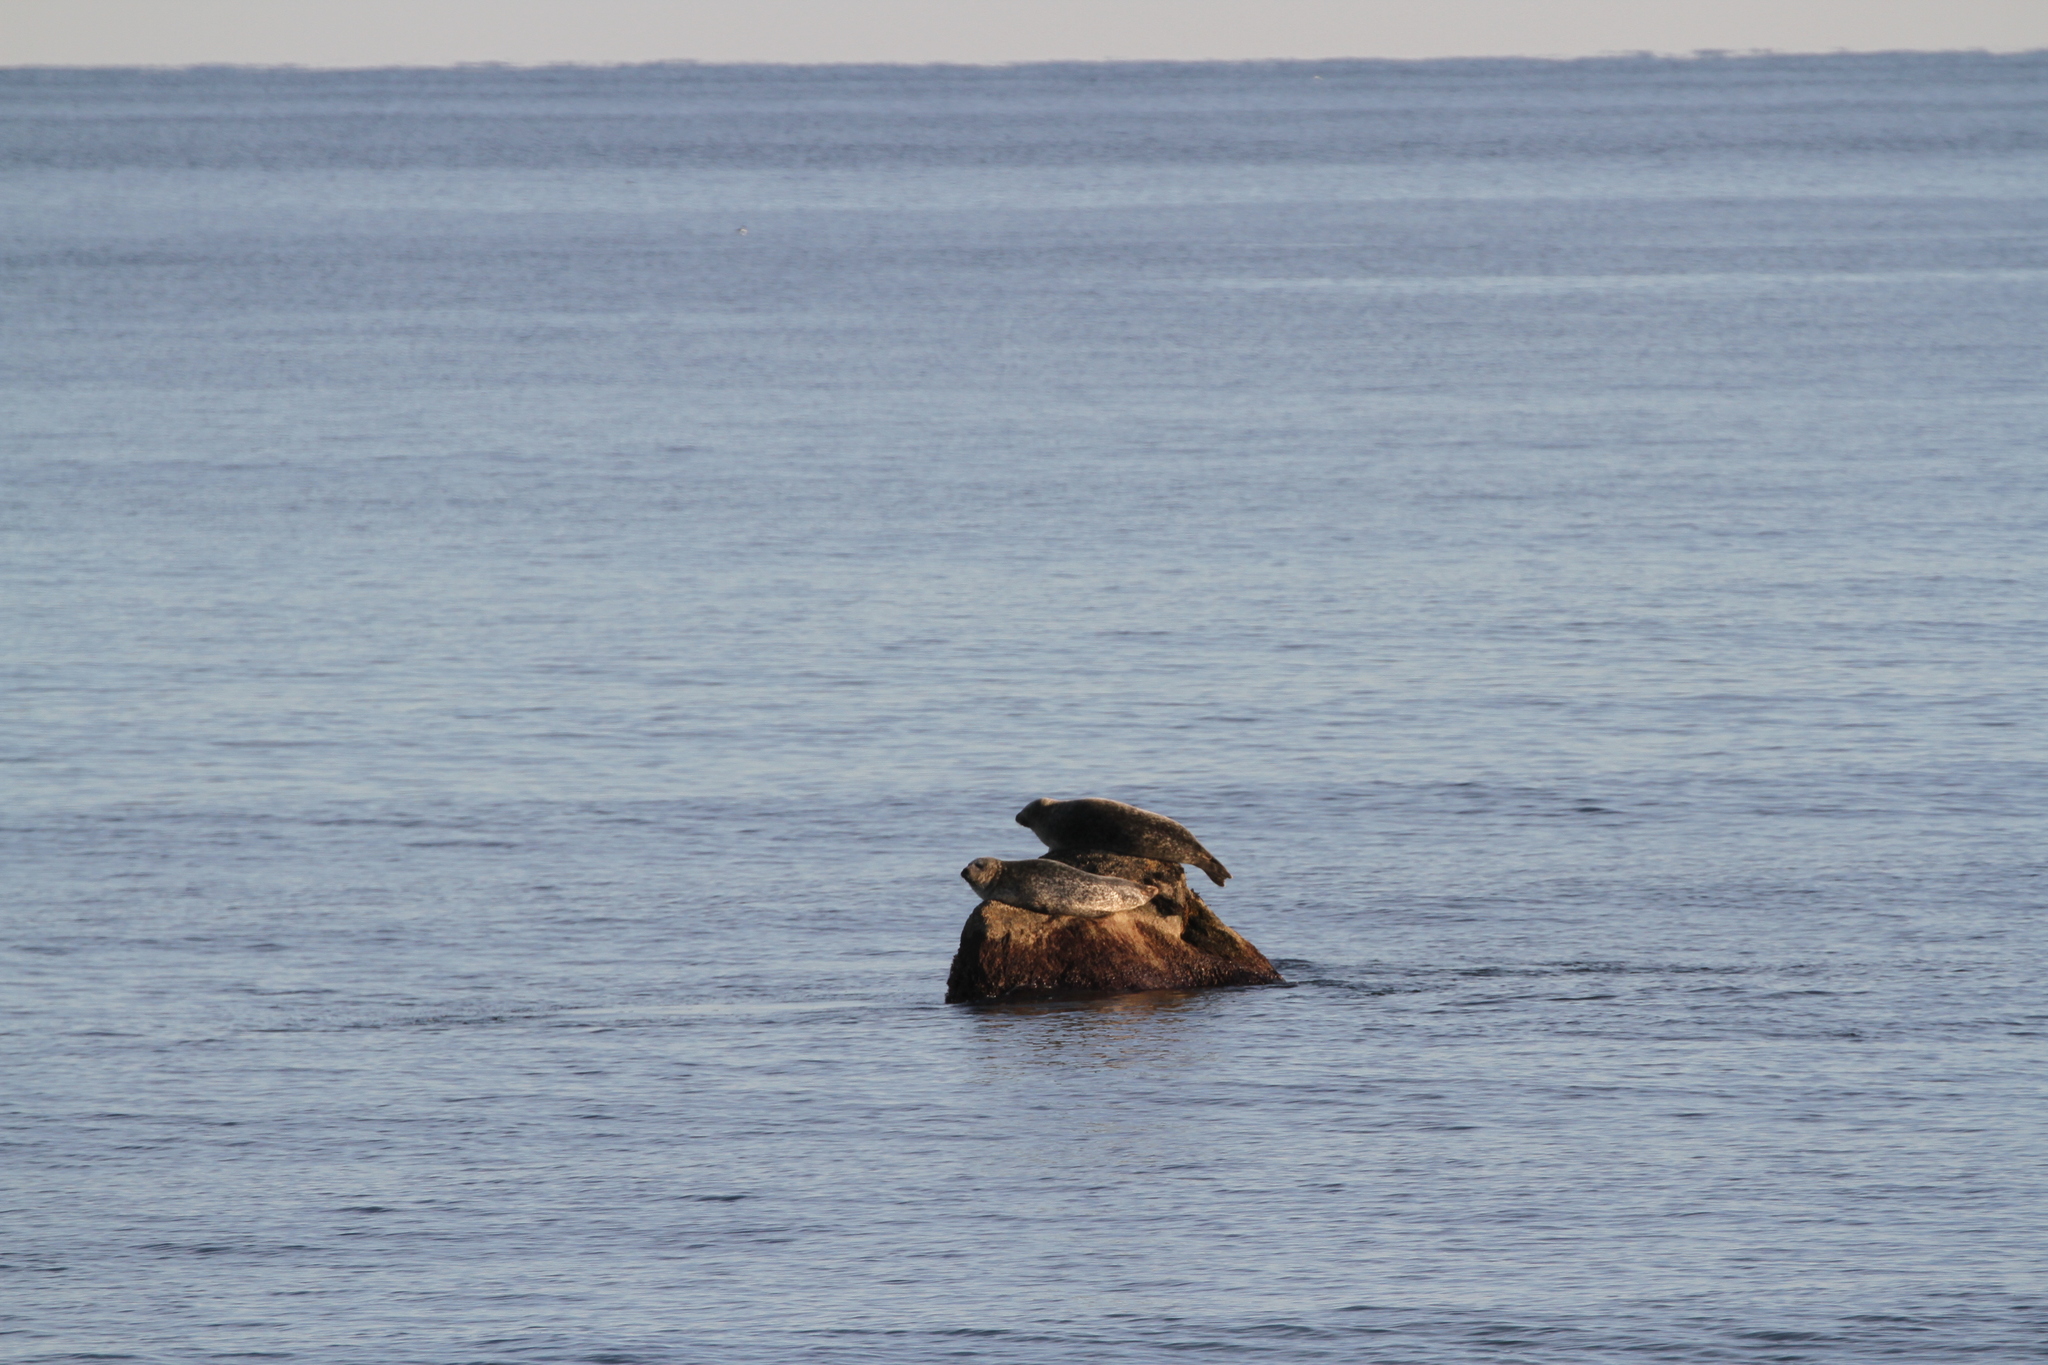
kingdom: Animalia
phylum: Chordata
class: Mammalia
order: Carnivora
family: Phocidae
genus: Phoca
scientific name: Phoca vitulina
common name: Harbor seal
